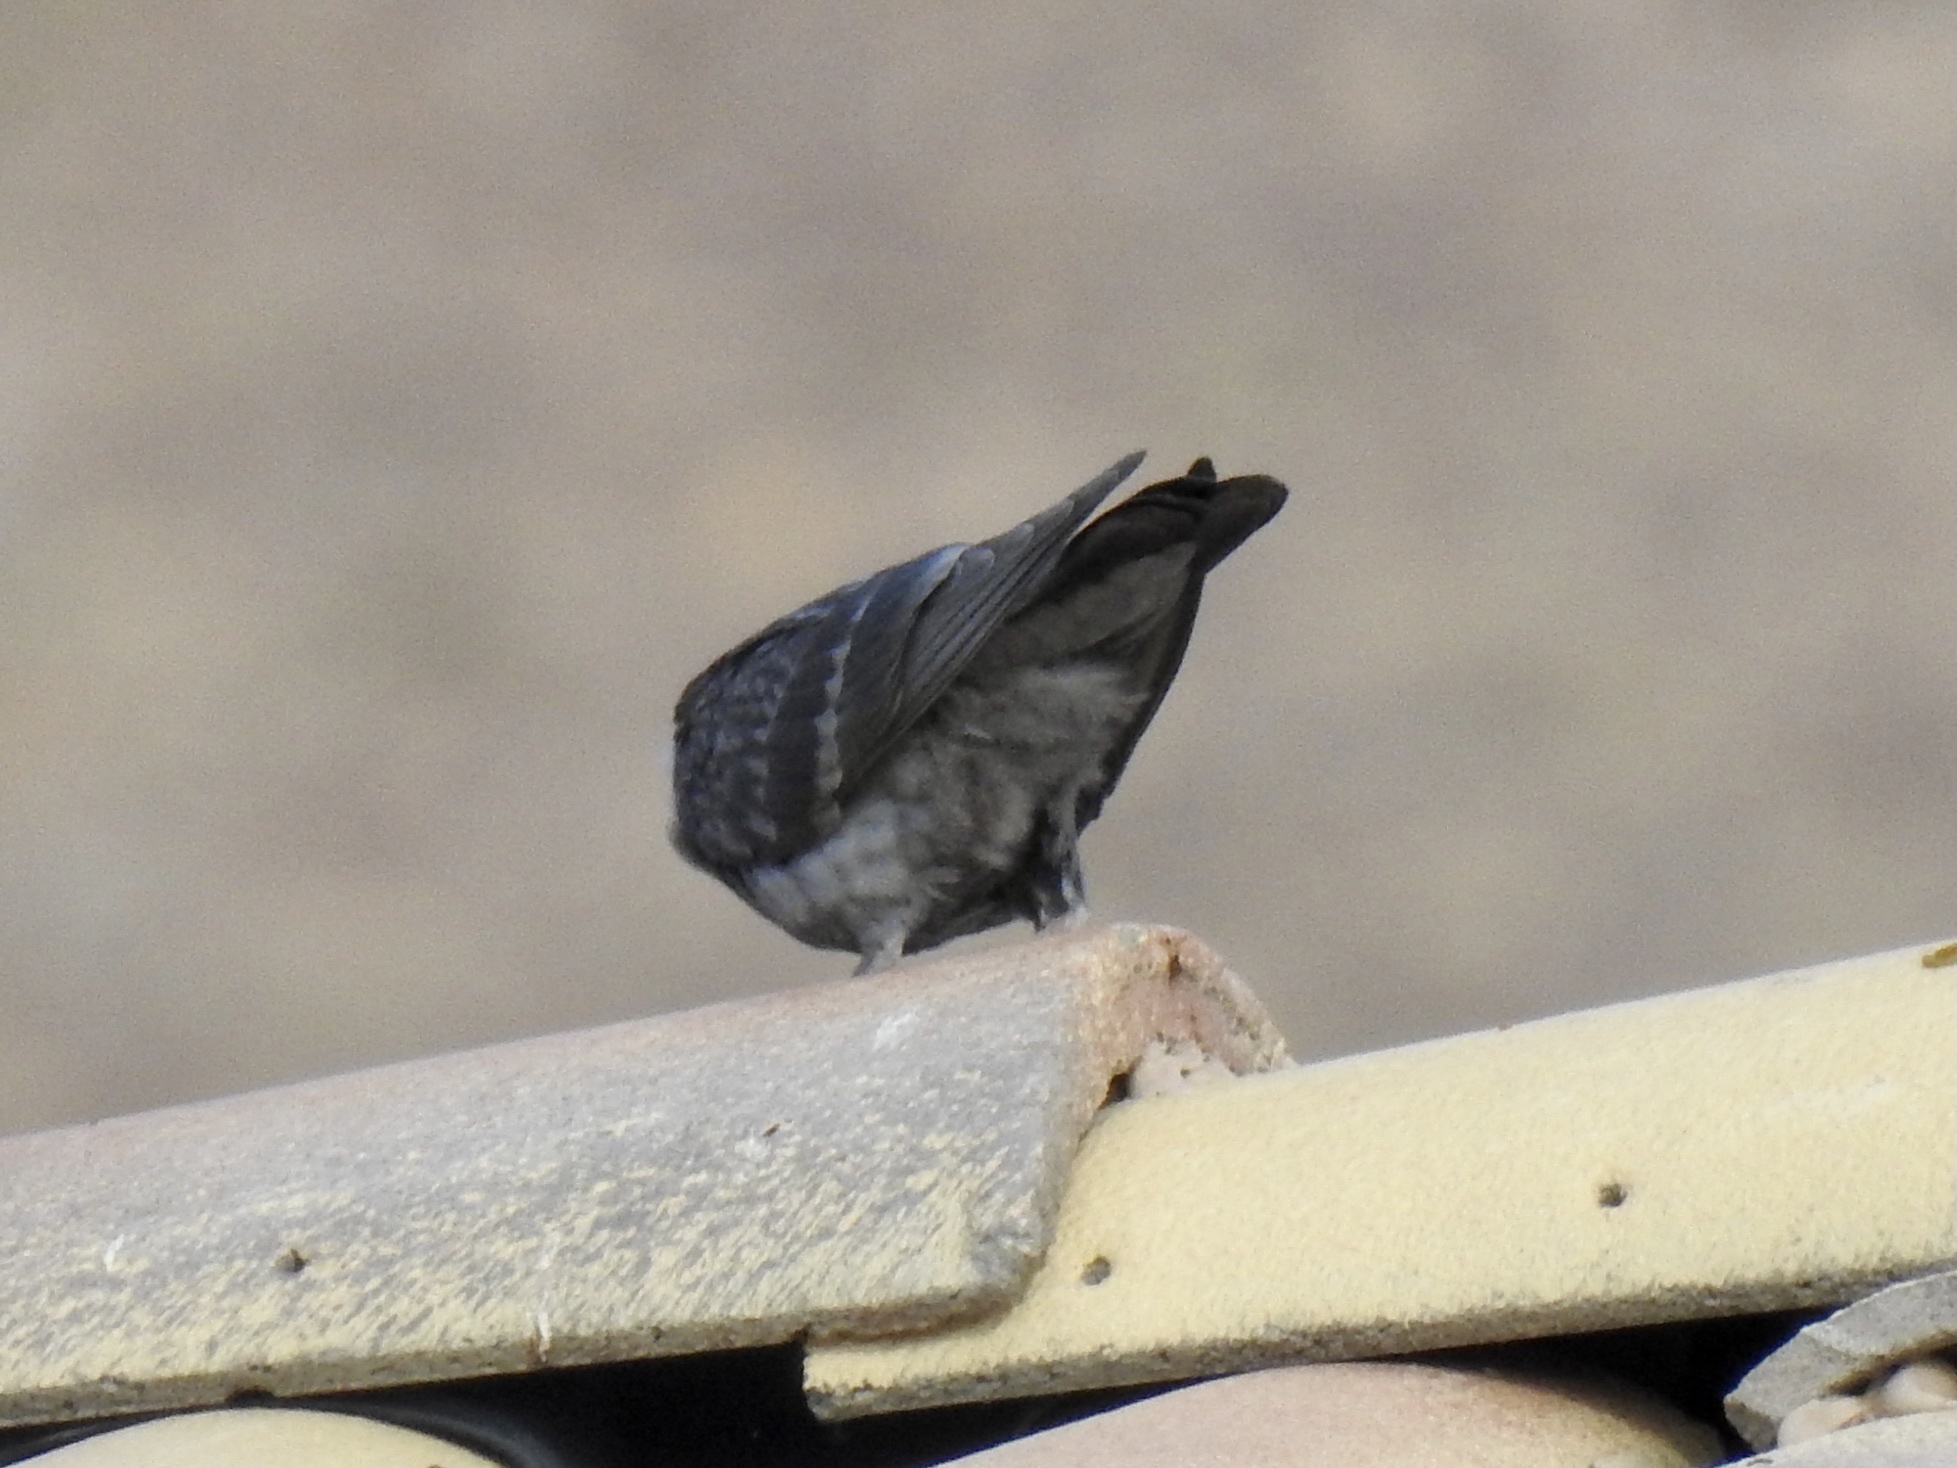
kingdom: Animalia
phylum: Chordata
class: Aves
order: Columbiformes
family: Columbidae
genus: Columba
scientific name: Columba livia
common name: Rock pigeon
